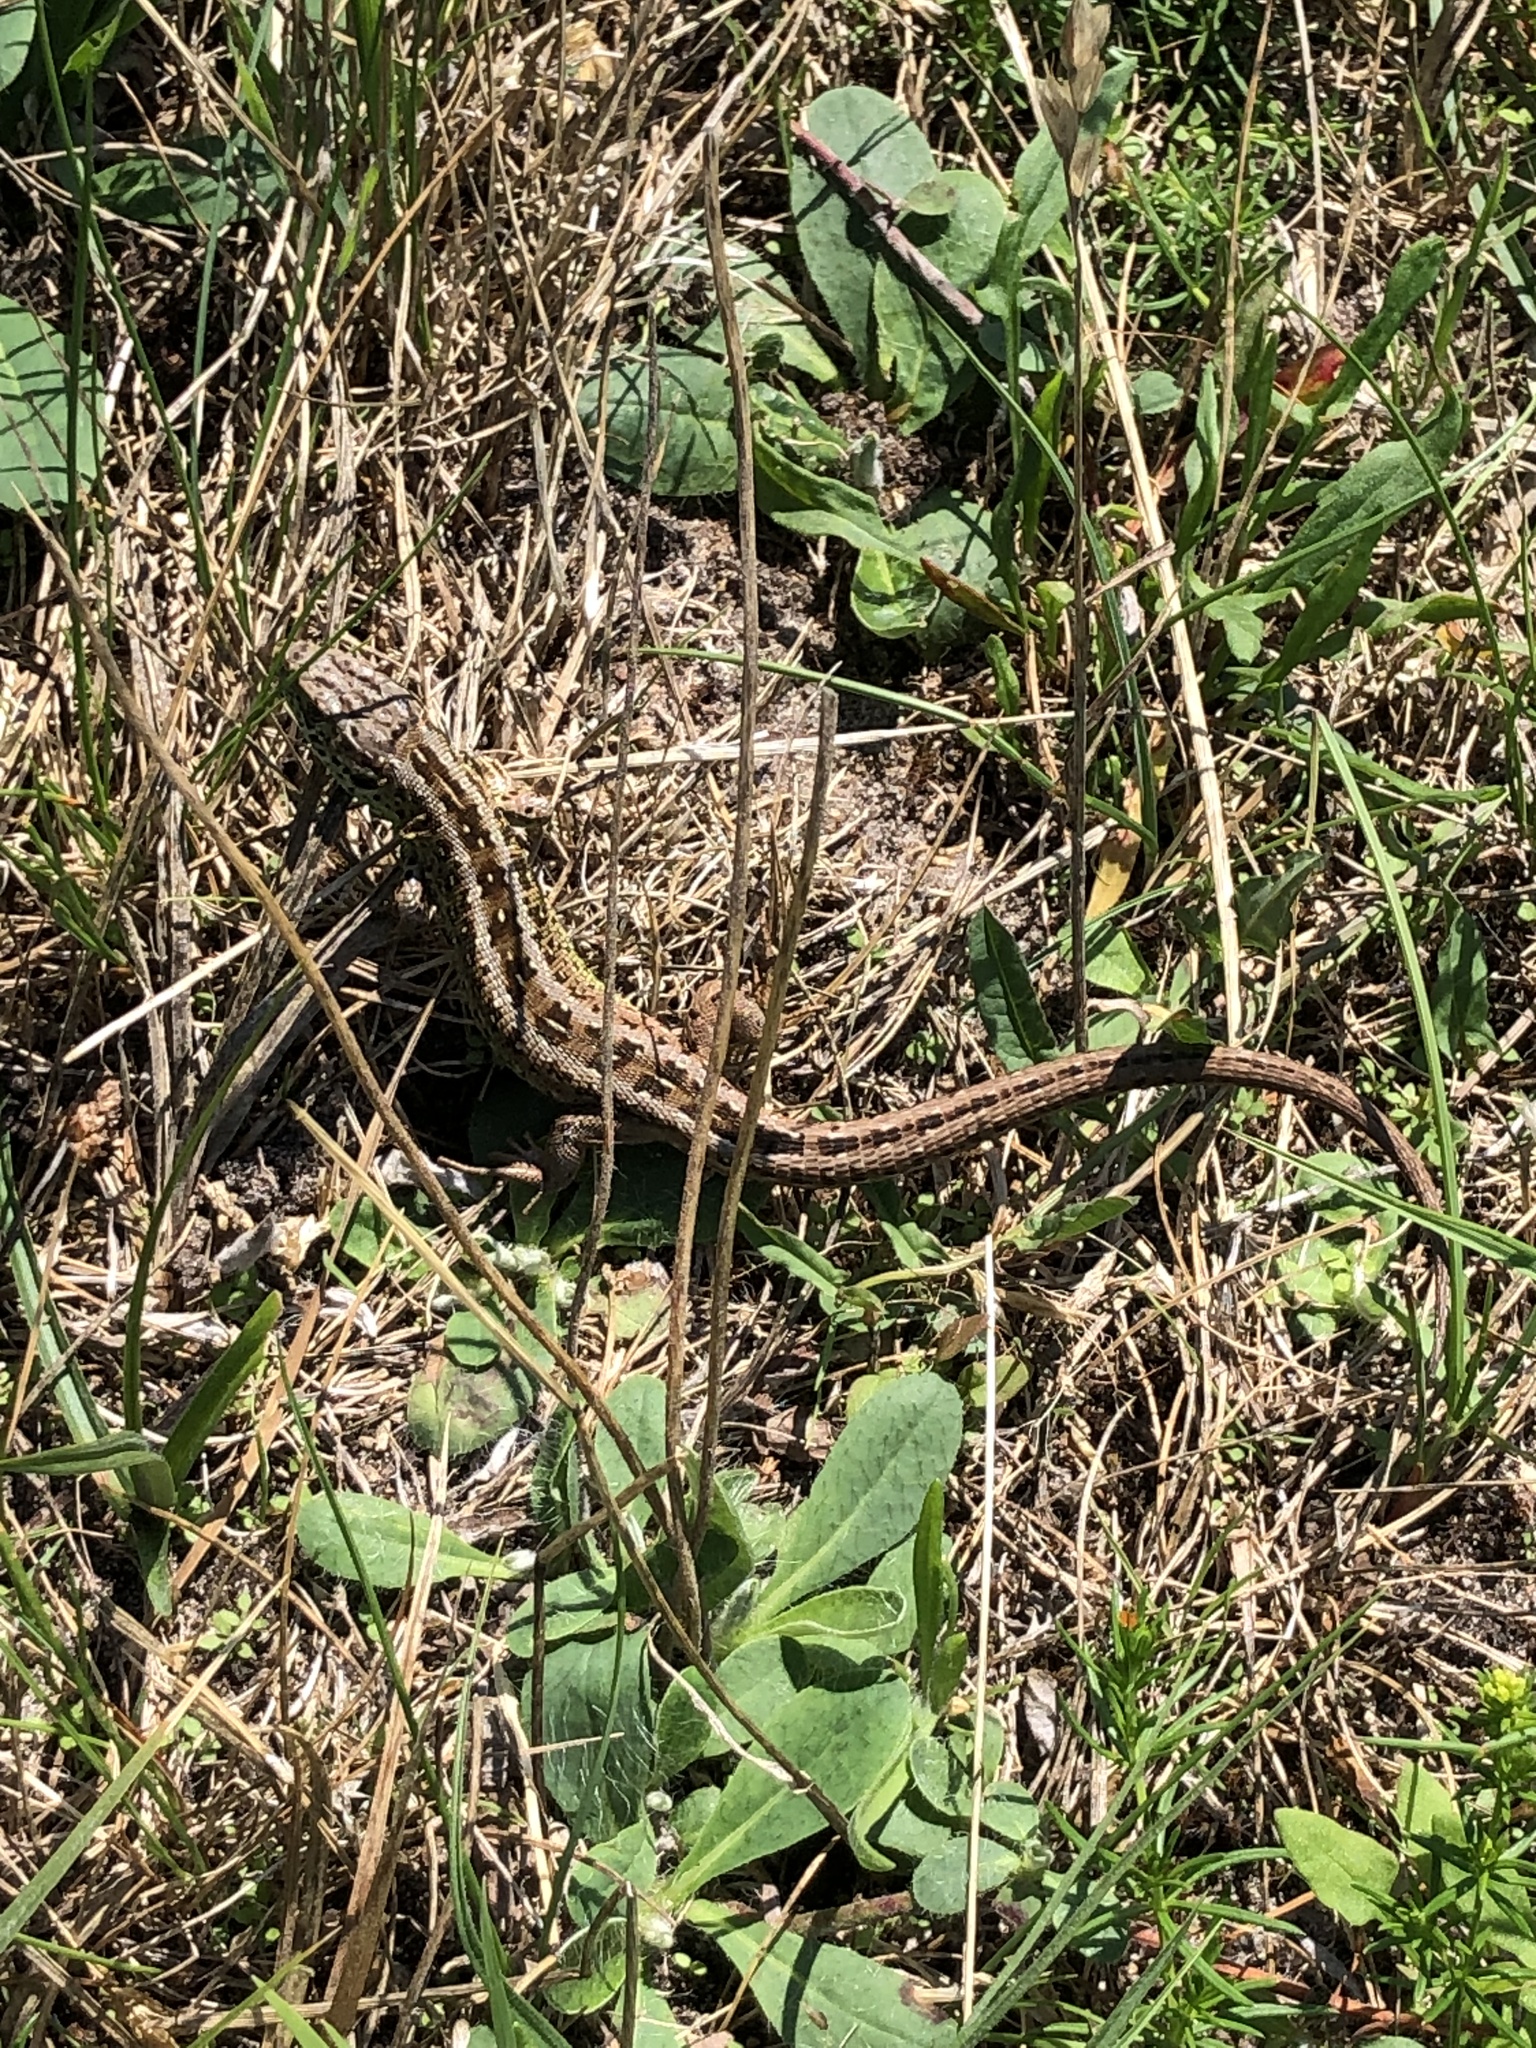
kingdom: Animalia
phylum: Chordata
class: Squamata
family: Lacertidae
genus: Lacerta
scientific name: Lacerta agilis
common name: Sand lizard
